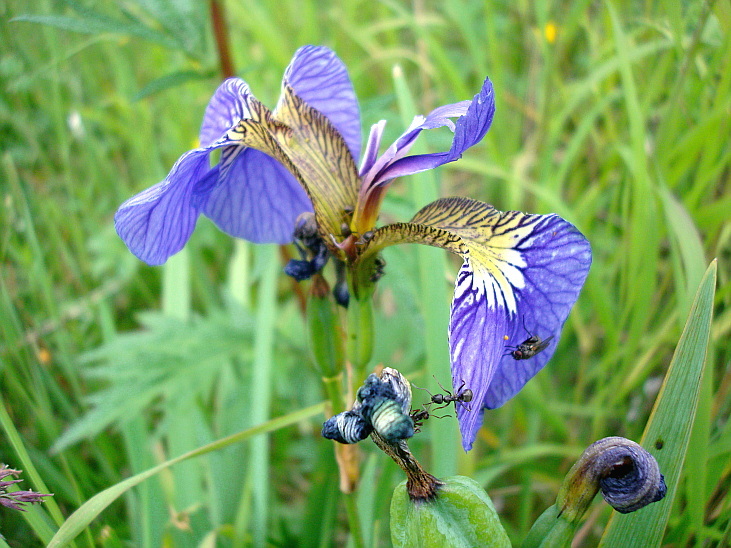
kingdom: Plantae
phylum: Tracheophyta
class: Liliopsida
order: Asparagales
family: Iridaceae
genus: Iris
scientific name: Iris setosa
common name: Arctic blue flag
